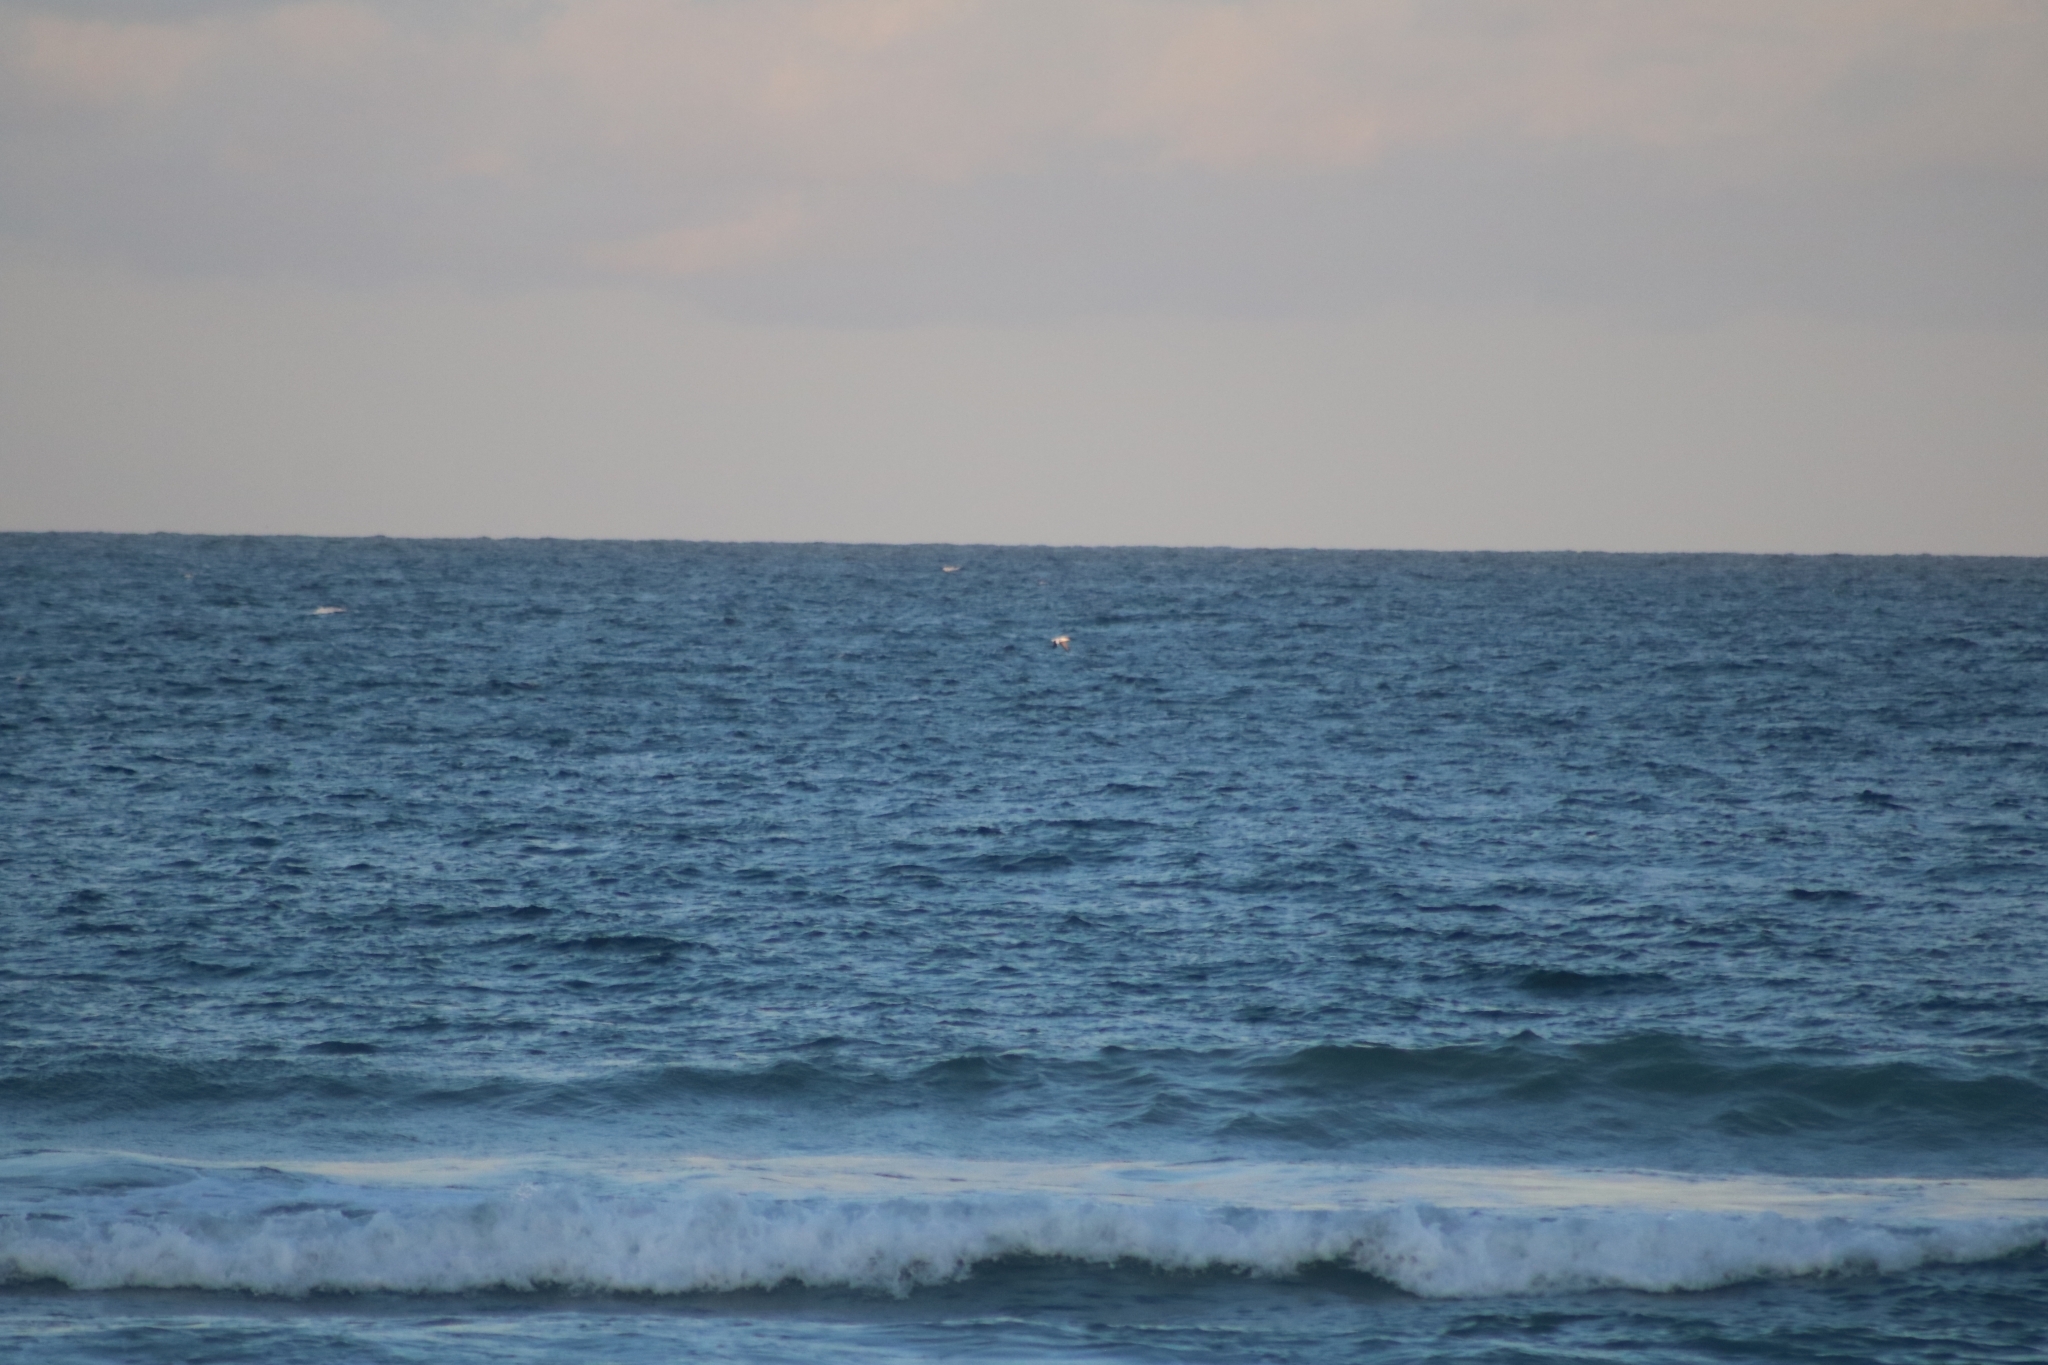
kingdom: Animalia
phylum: Chordata
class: Aves
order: Suliformes
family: Sulidae
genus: Morus
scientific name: Morus serrator
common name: Australasian gannet
